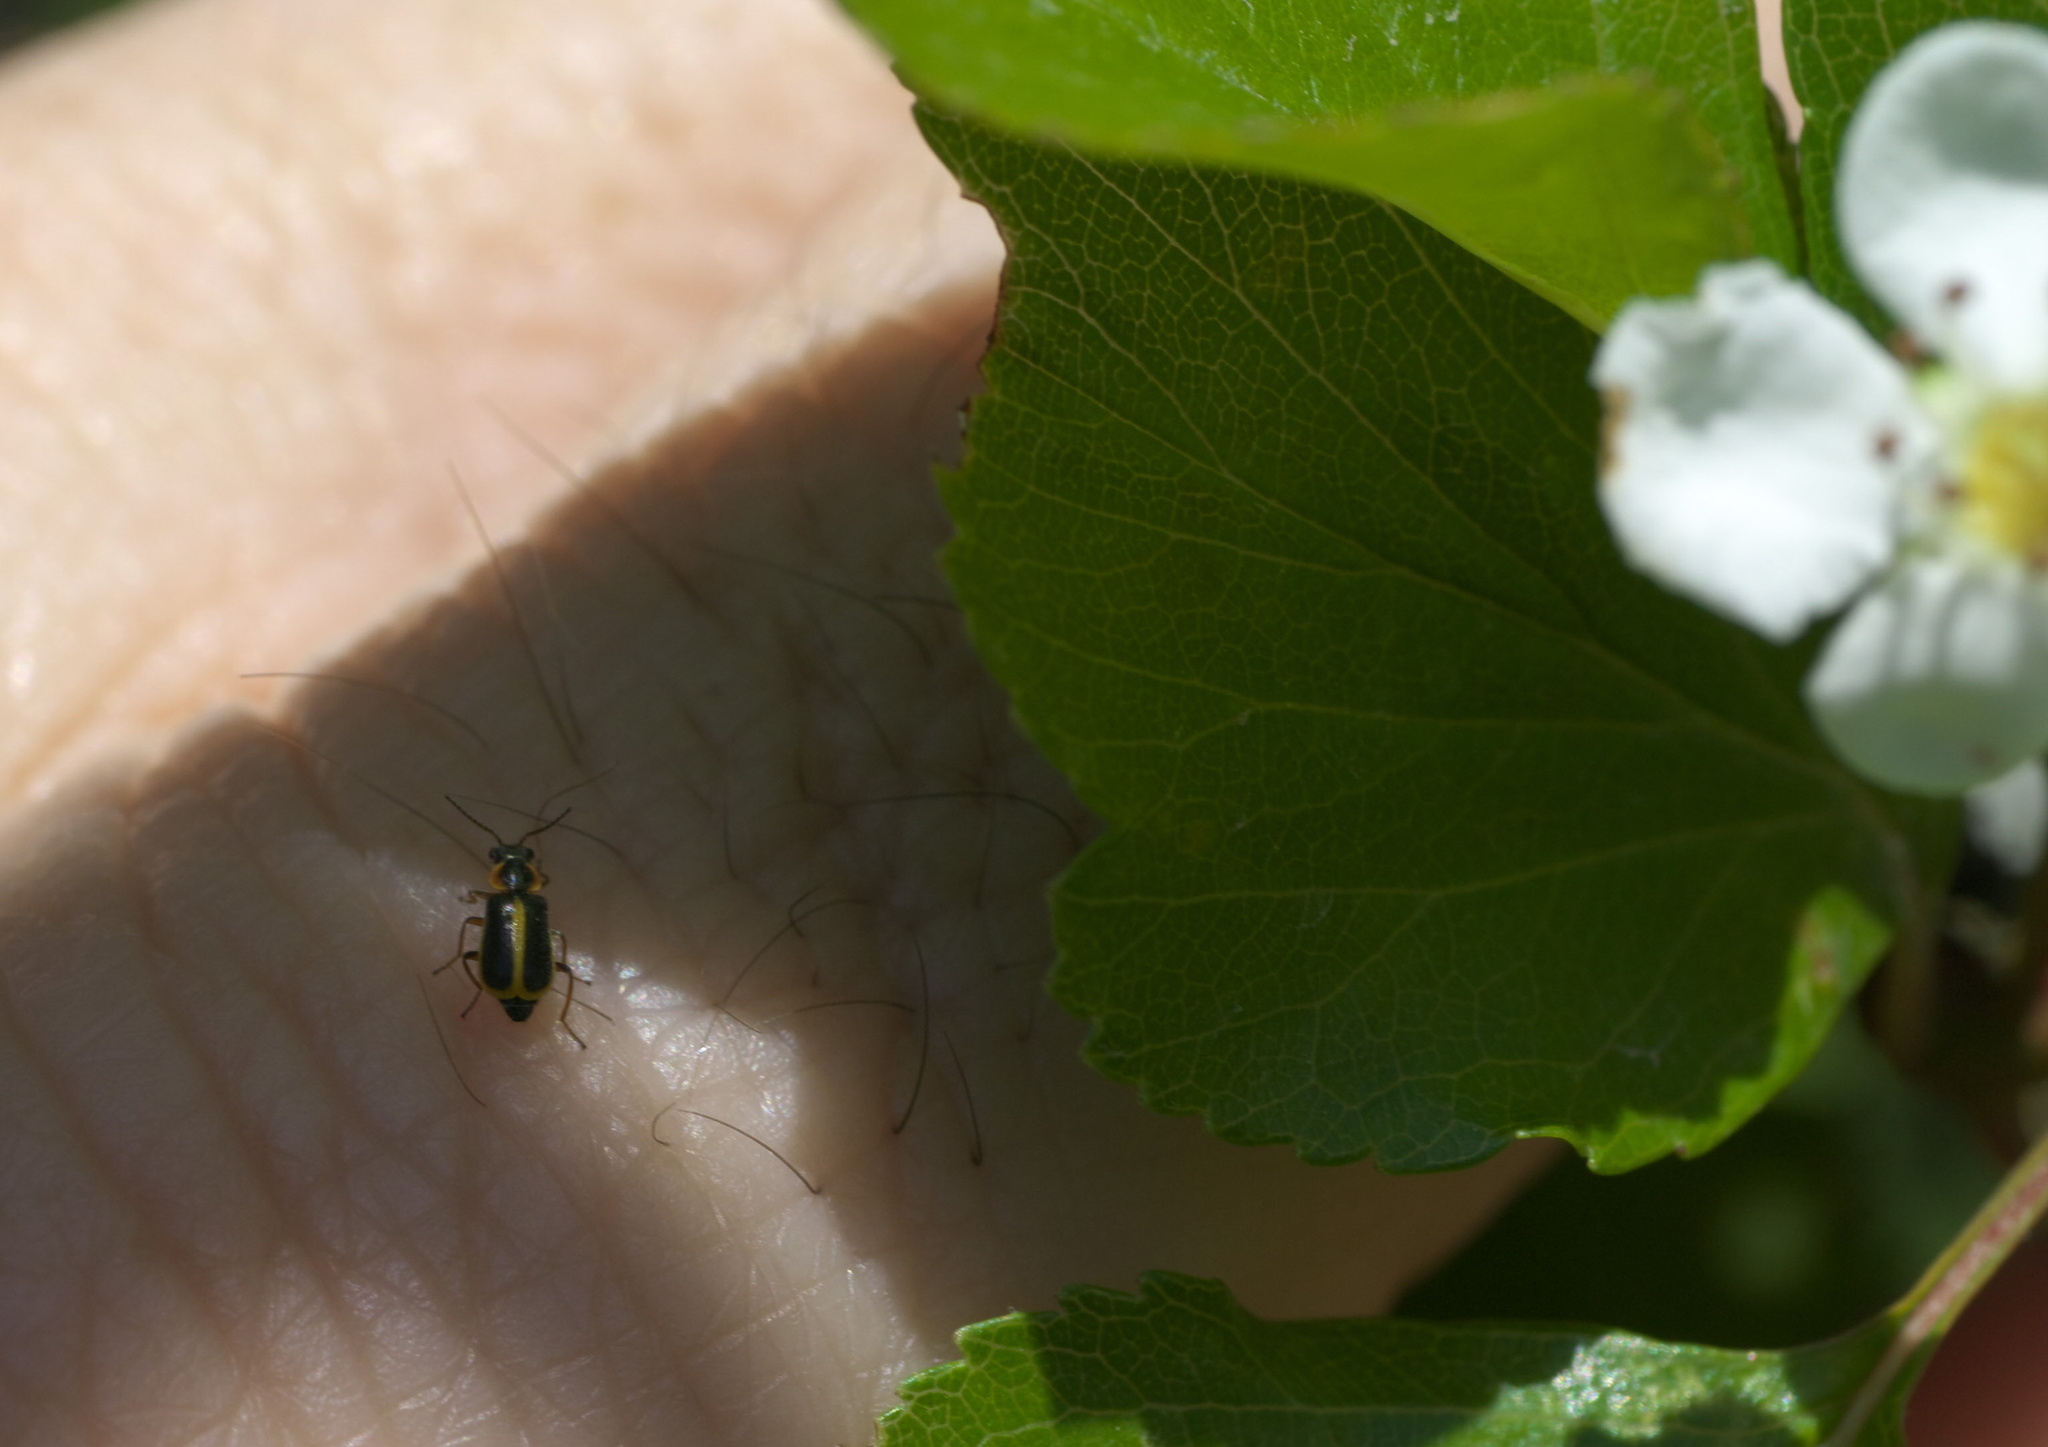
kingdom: Animalia
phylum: Arthropoda
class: Insecta
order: Coleoptera
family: Malachiidae
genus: Attalus
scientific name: Attalus
